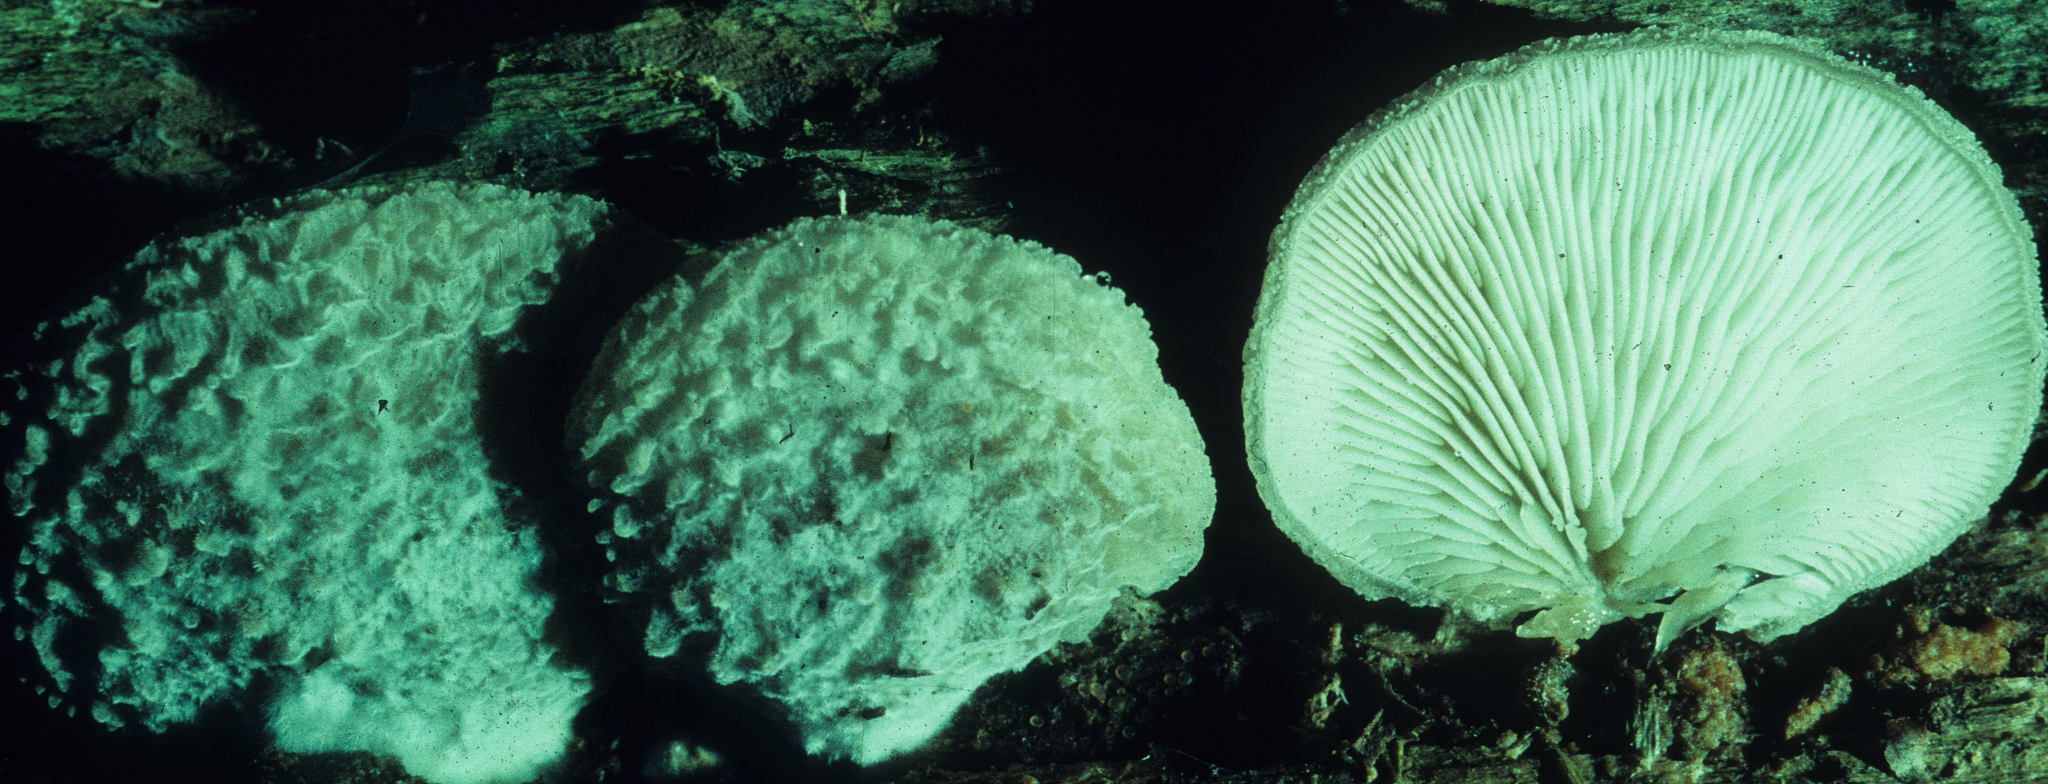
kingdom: Fungi
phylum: Basidiomycota
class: Agaricomycetes
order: Agaricales
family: Pleurotaceae
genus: Hohenbuehelia
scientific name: Hohenbuehelia mastrucata
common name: Woolly oyster
